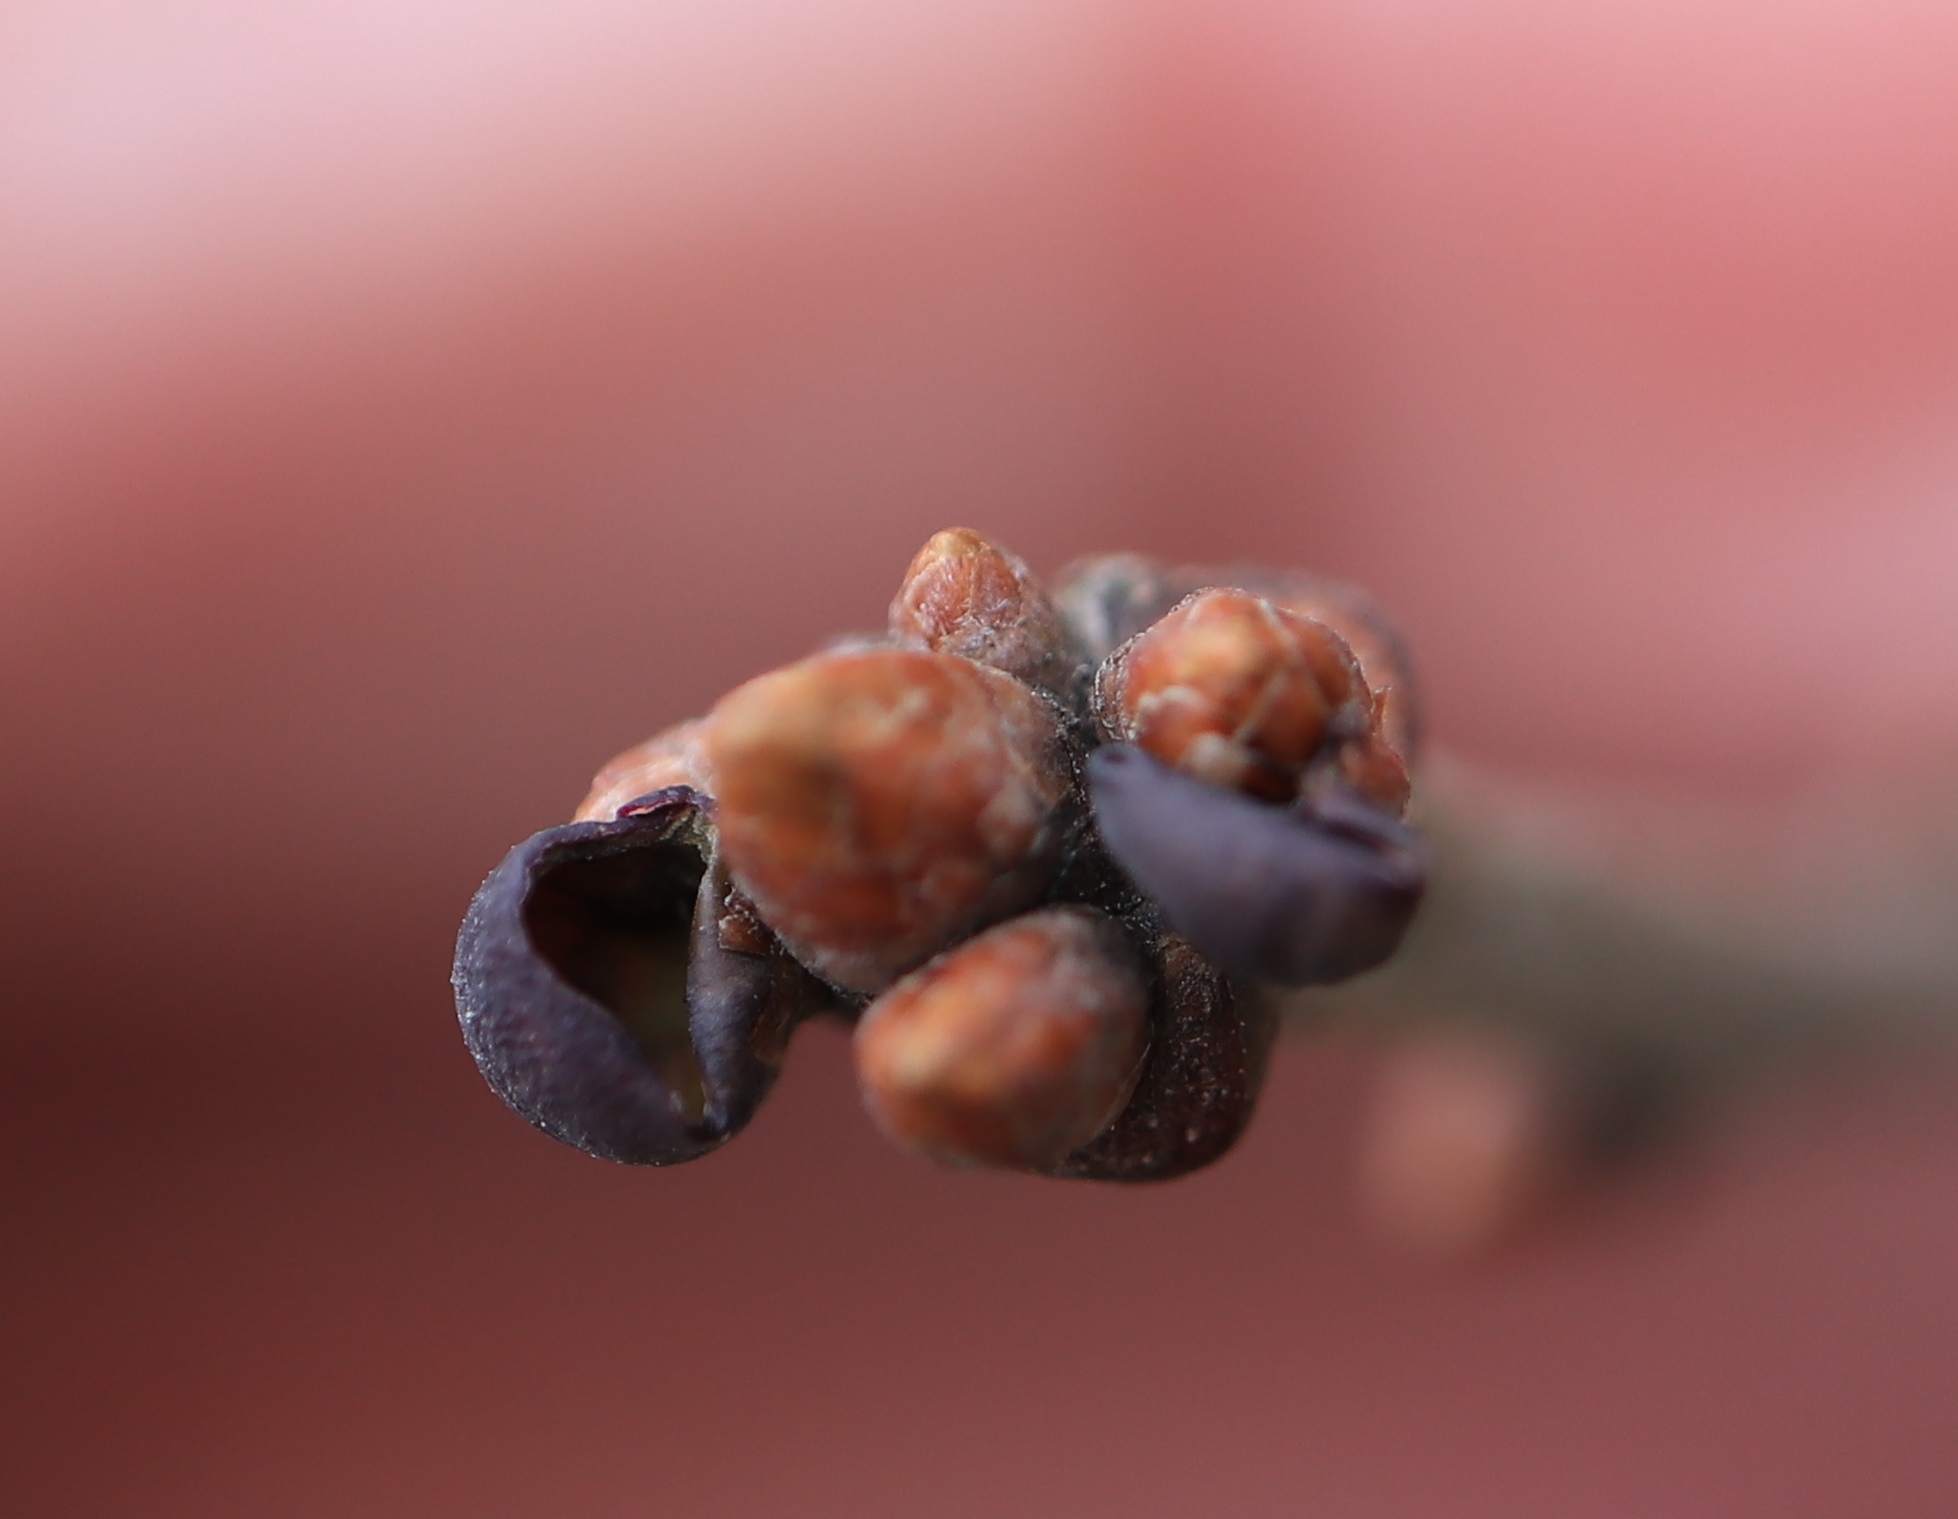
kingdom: Animalia
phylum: Arthropoda
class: Insecta
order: Hymenoptera
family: Cynipidae
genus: Neuroterus
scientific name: Neuroterus
